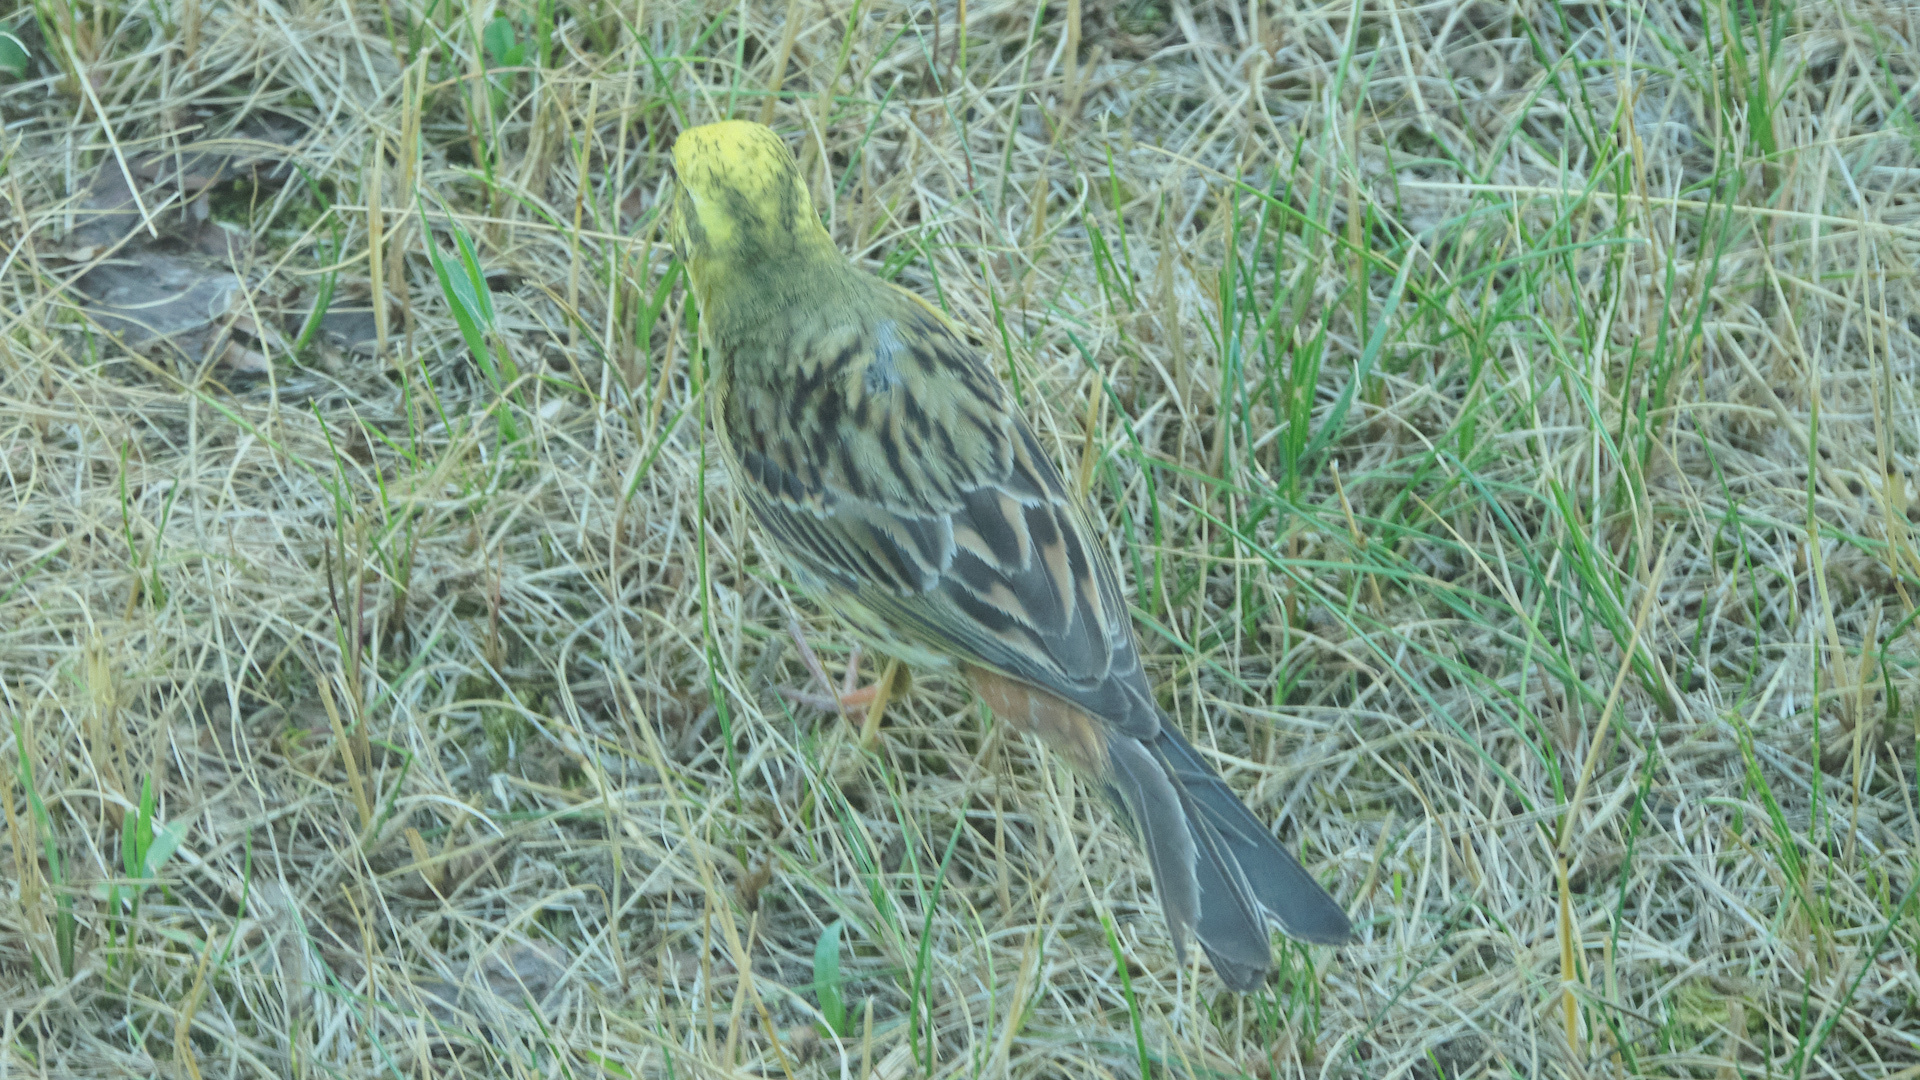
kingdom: Animalia
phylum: Chordata
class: Aves
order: Passeriformes
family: Emberizidae
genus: Emberiza
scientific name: Emberiza citrinella
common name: Yellowhammer
